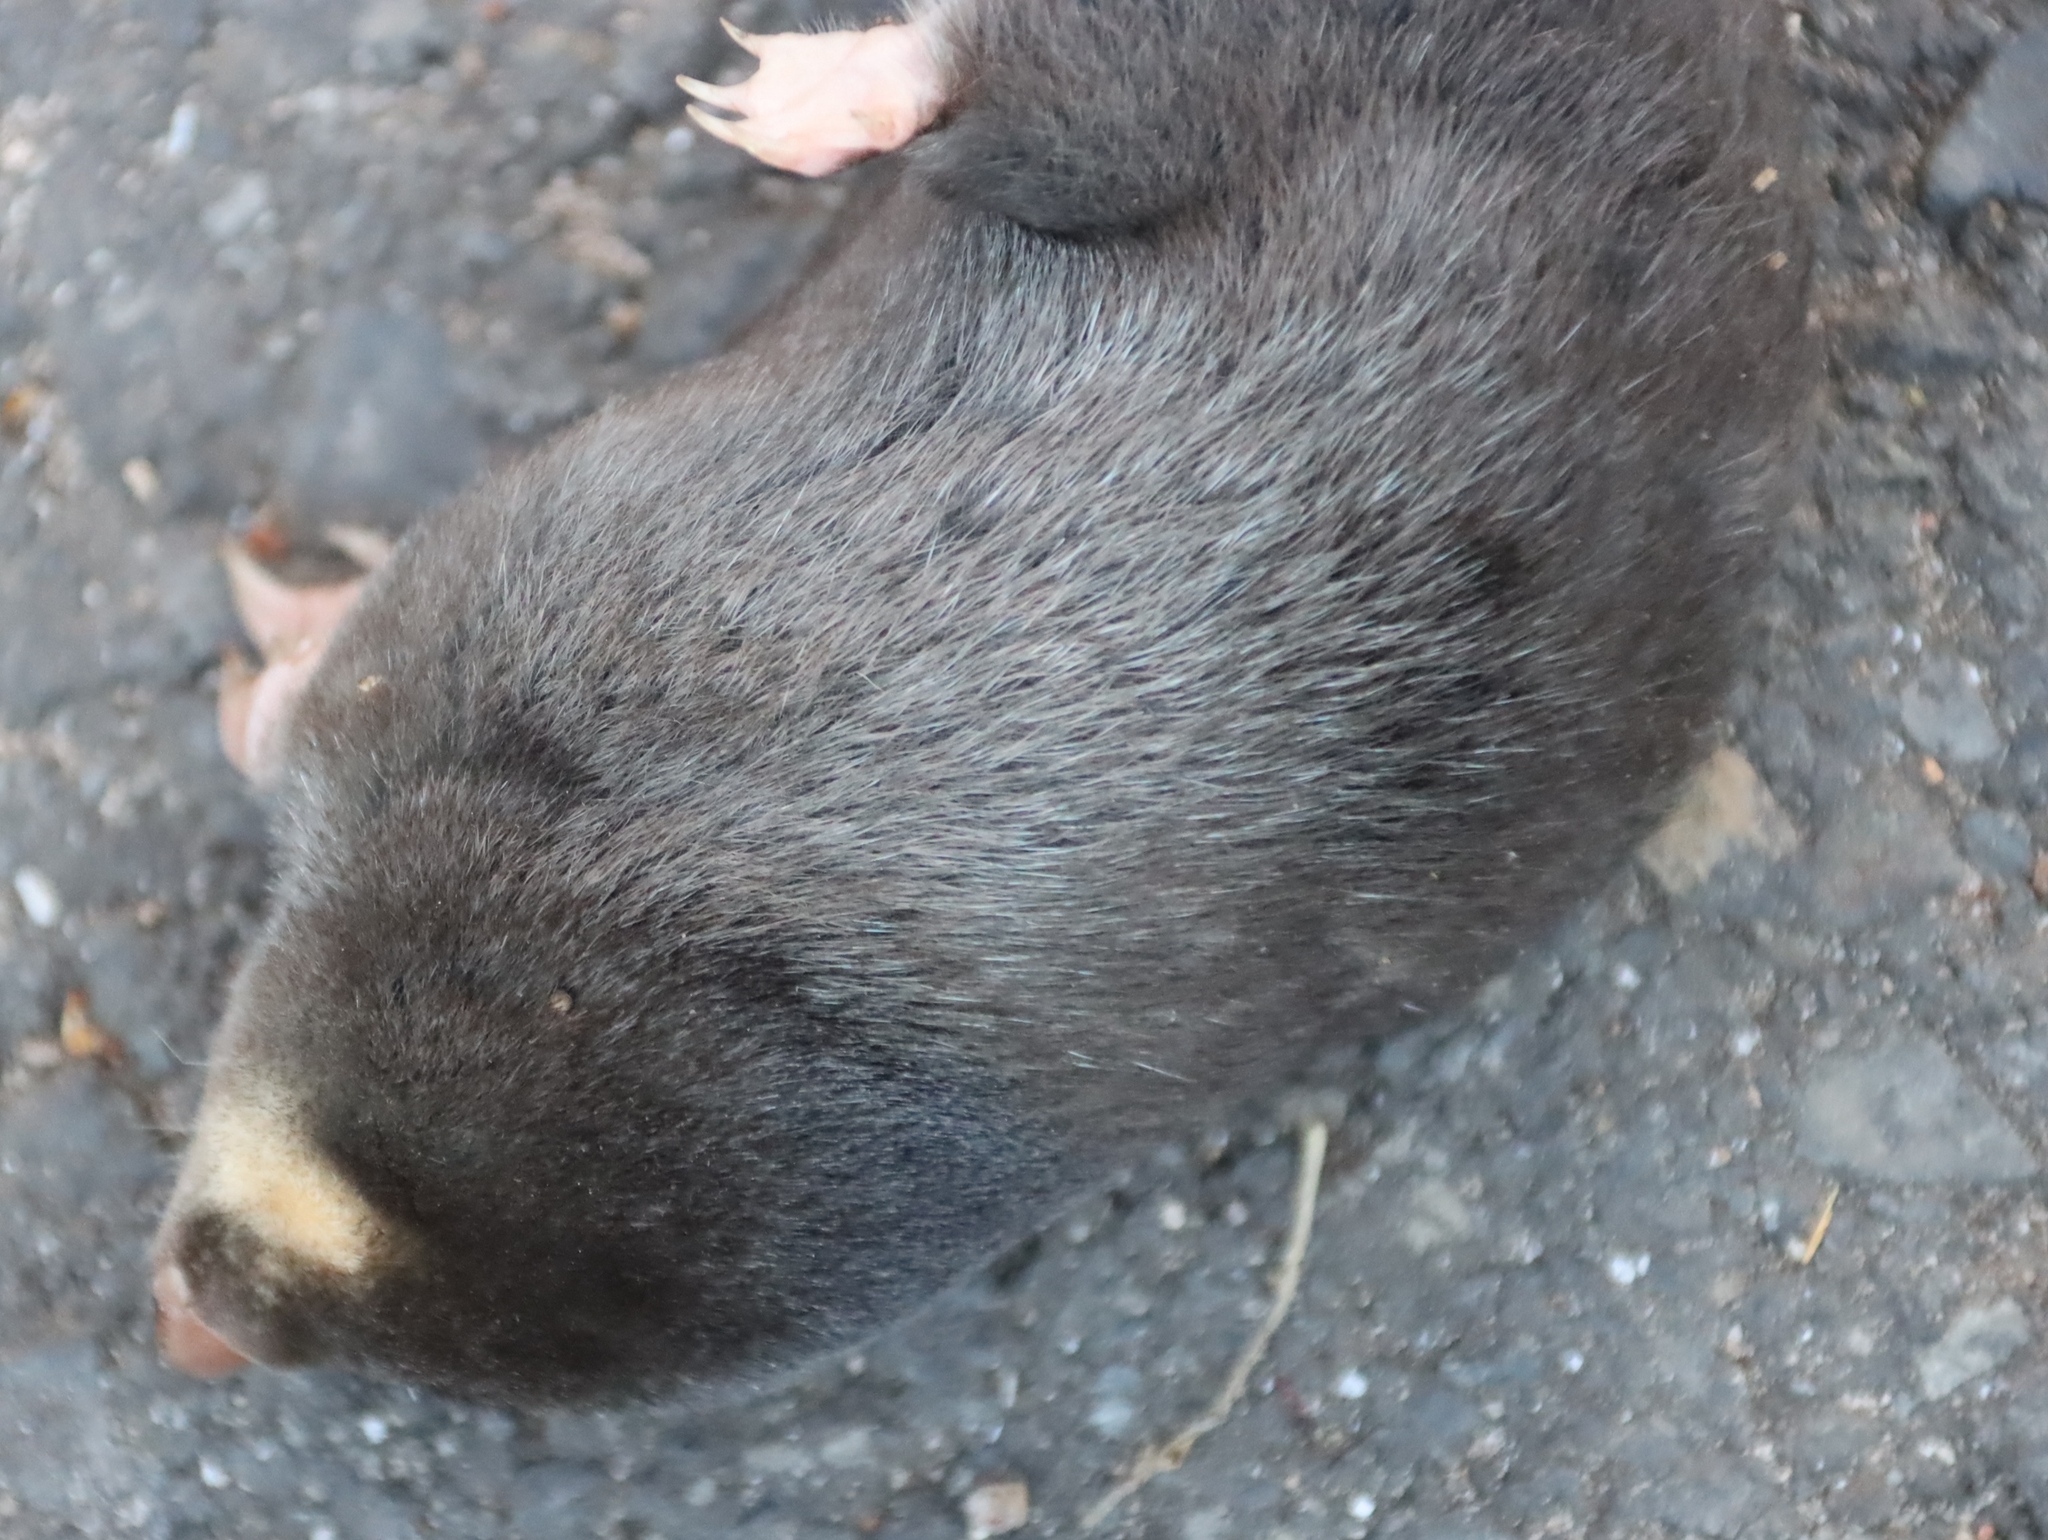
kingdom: Animalia
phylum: Chordata
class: Mammalia
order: Afrosoricida
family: Chrysochloridae
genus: Chrysochloris
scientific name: Chrysochloris asiatica
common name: Cape golden mole
